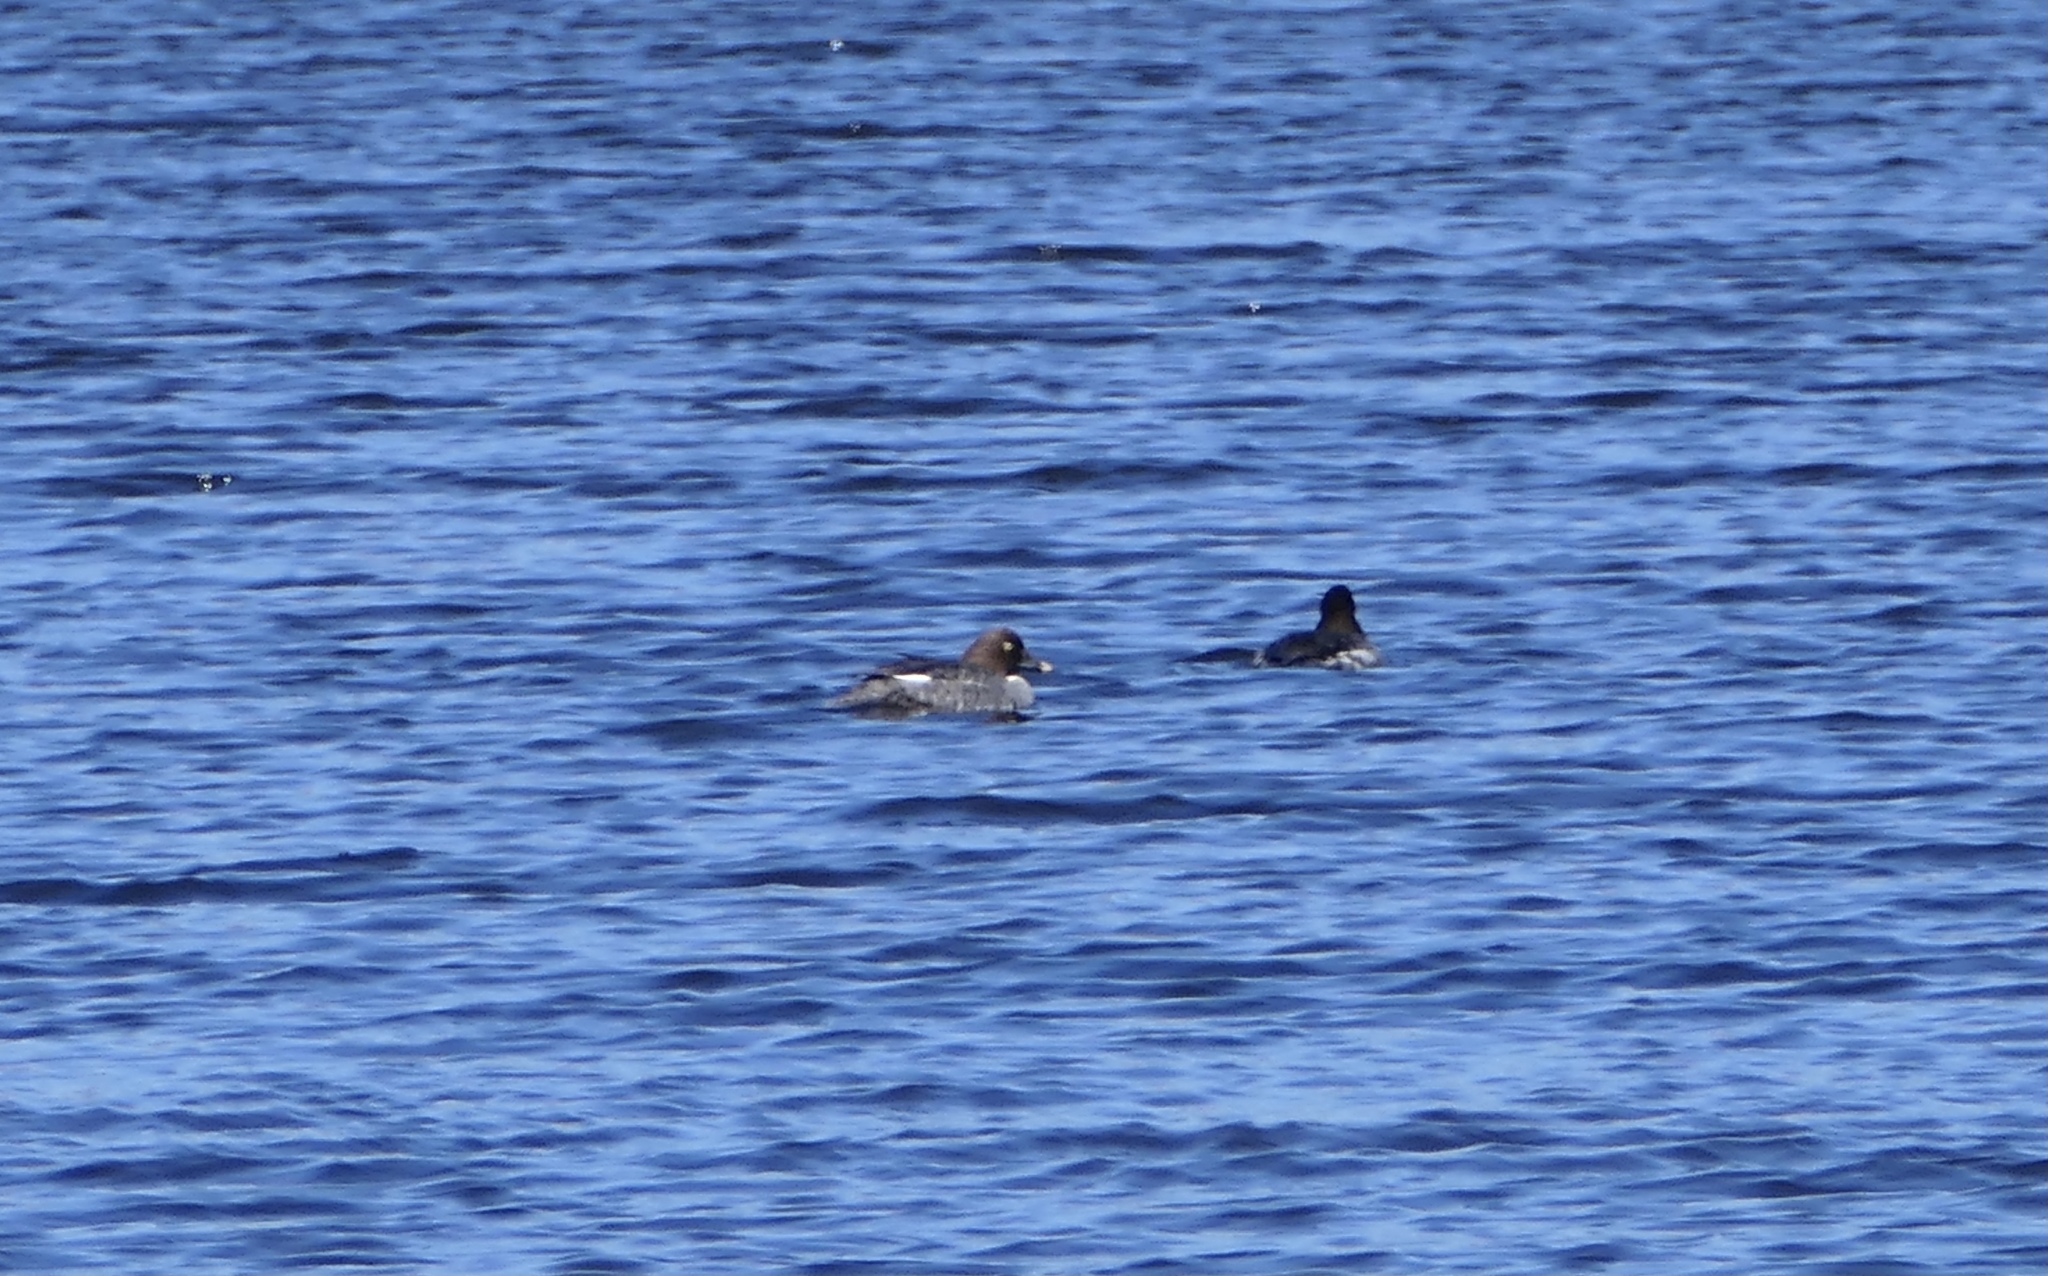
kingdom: Animalia
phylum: Chordata
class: Aves
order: Anseriformes
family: Anatidae
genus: Bucephala
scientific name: Bucephala clangula
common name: Common goldeneye
